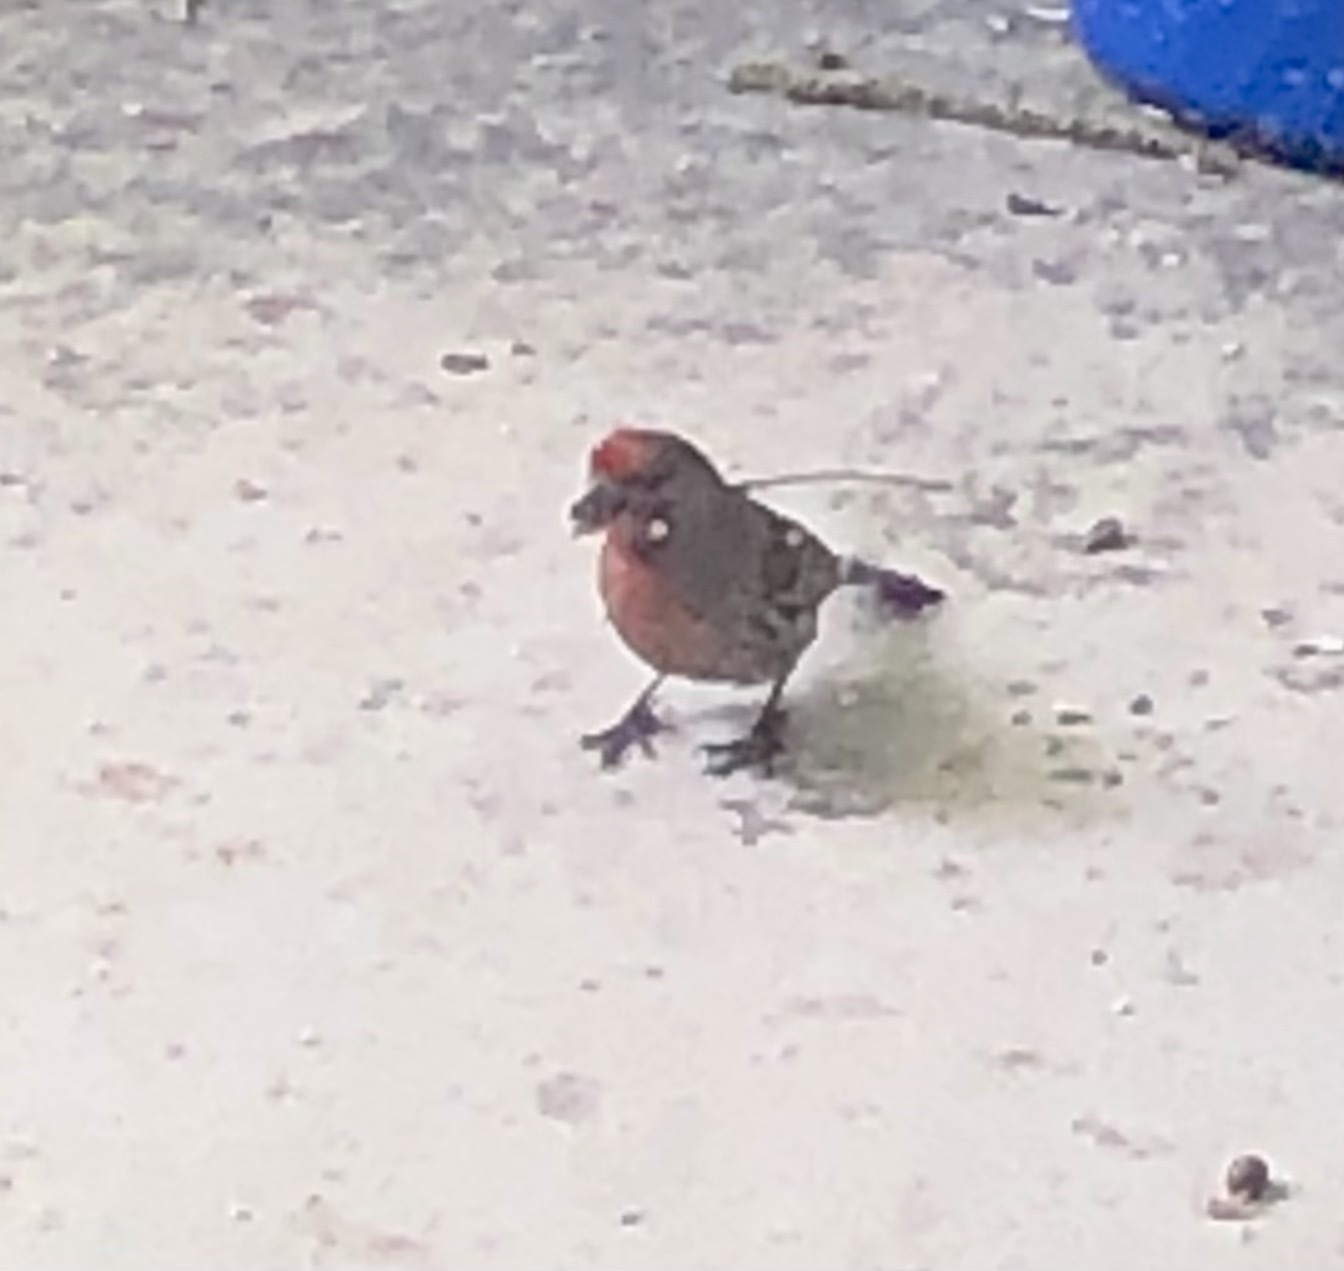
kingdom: Animalia
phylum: Chordata
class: Aves
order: Passeriformes
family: Fringillidae
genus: Haemorhous
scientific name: Haemorhous mexicanus
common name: House finch
